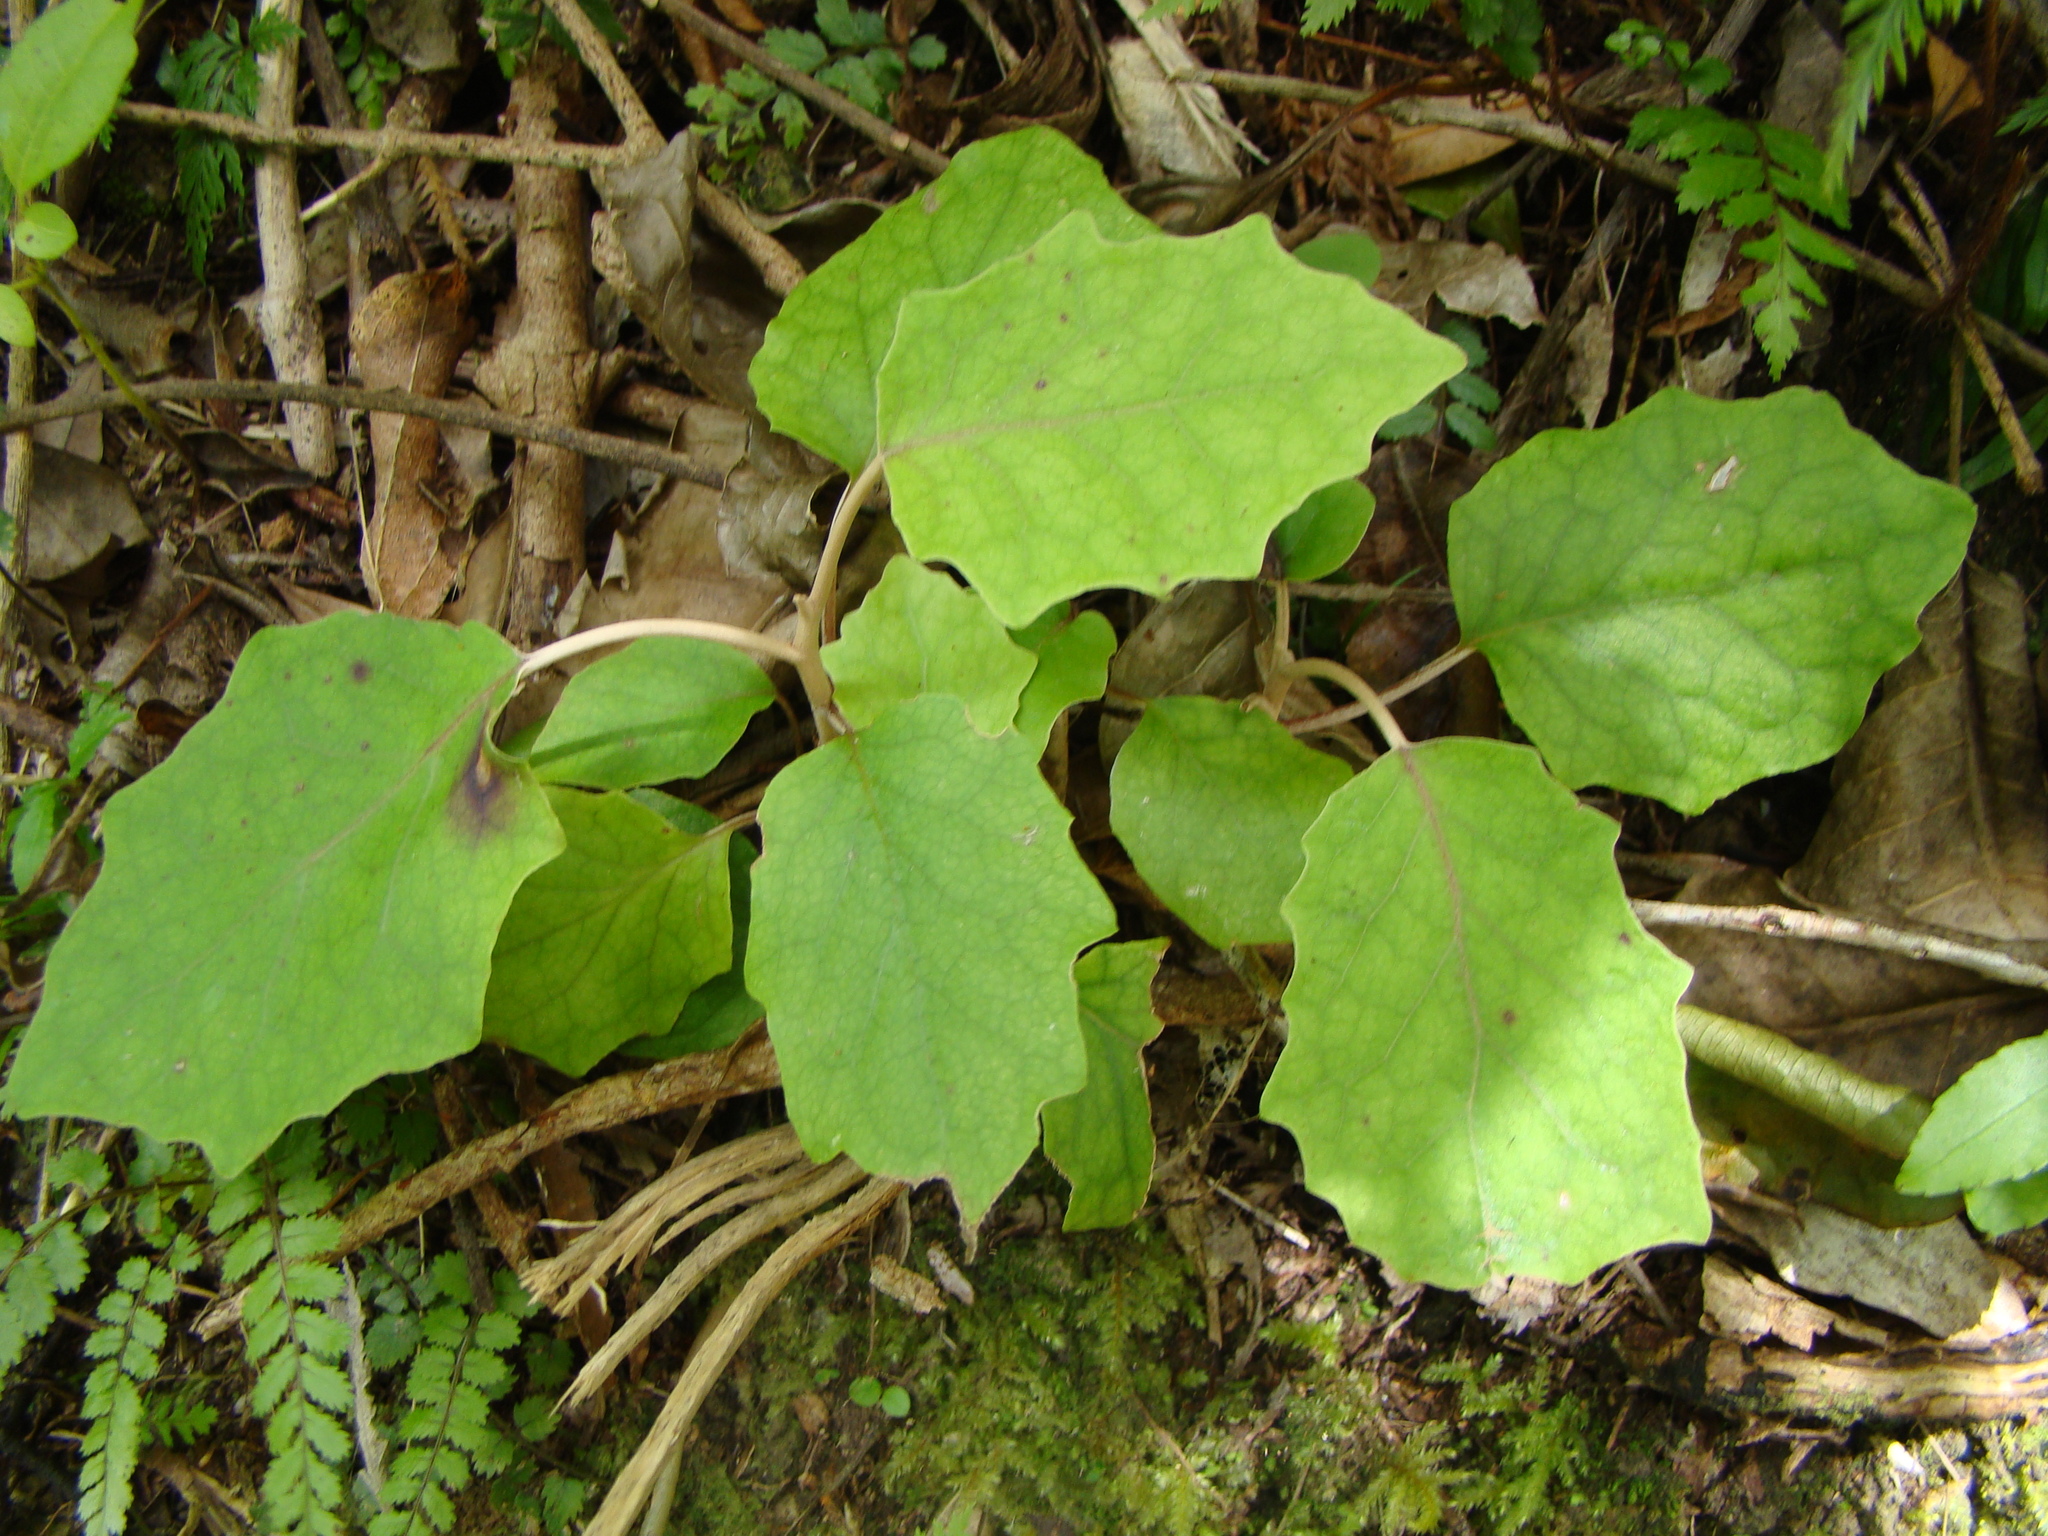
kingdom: Plantae
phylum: Tracheophyta
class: Magnoliopsida
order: Asterales
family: Asteraceae
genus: Brachyglottis
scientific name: Brachyglottis repanda
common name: Hedge ragwort
